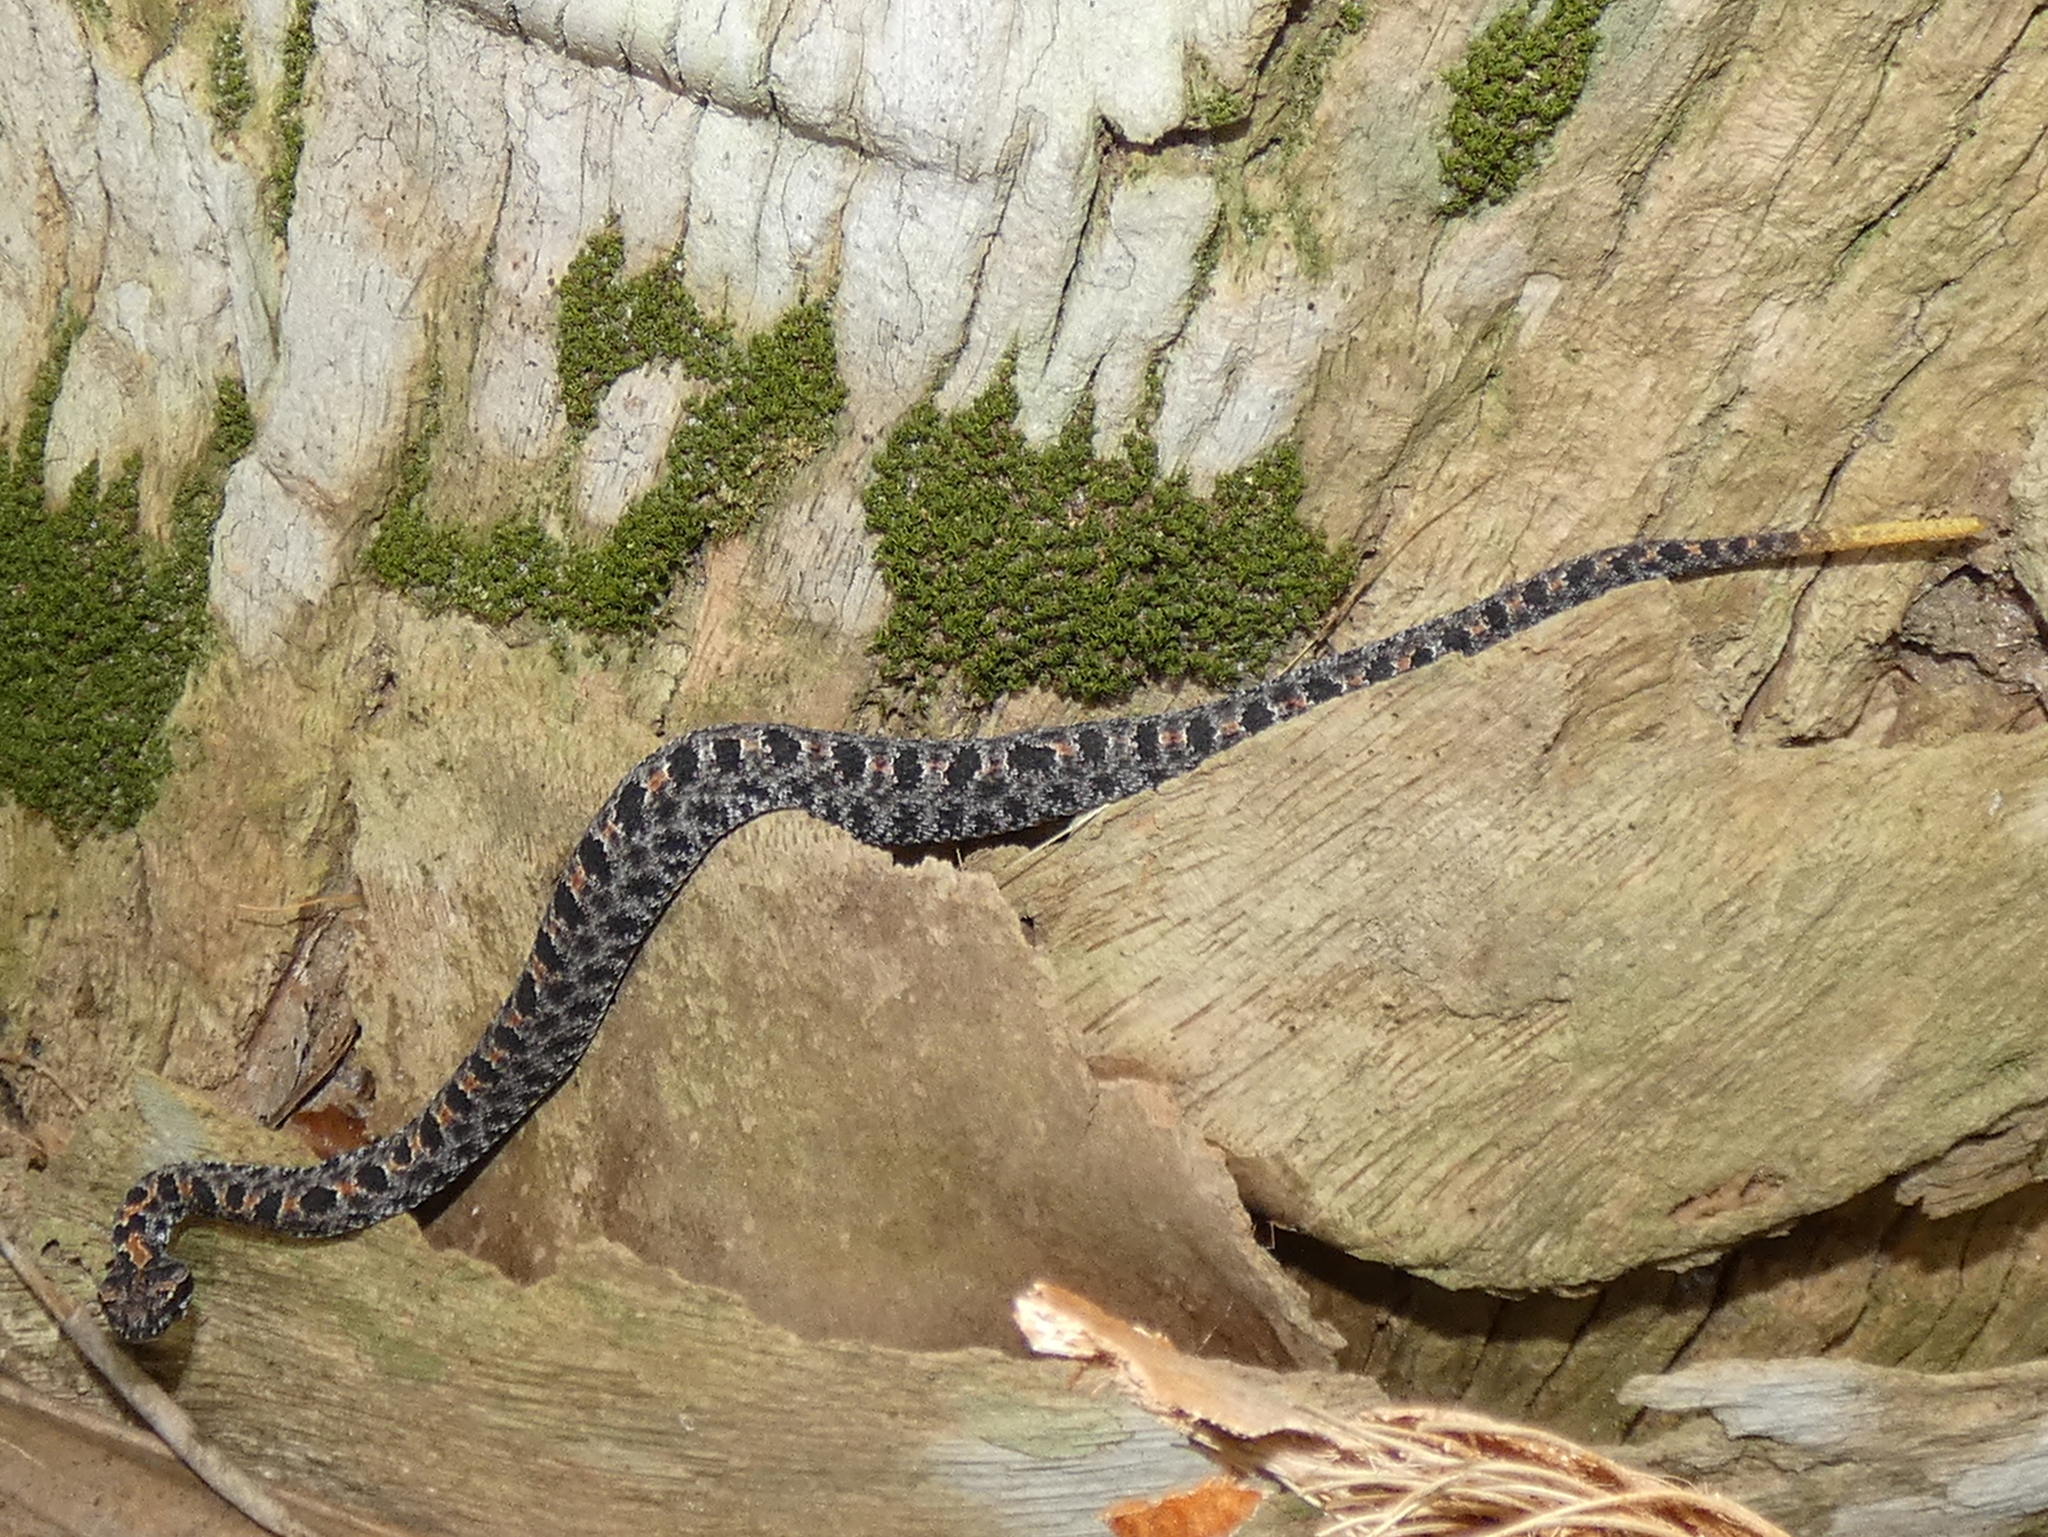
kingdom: Animalia
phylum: Chordata
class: Squamata
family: Viperidae
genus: Sistrurus
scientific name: Sistrurus miliarius
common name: Pygmy rattlesnake
